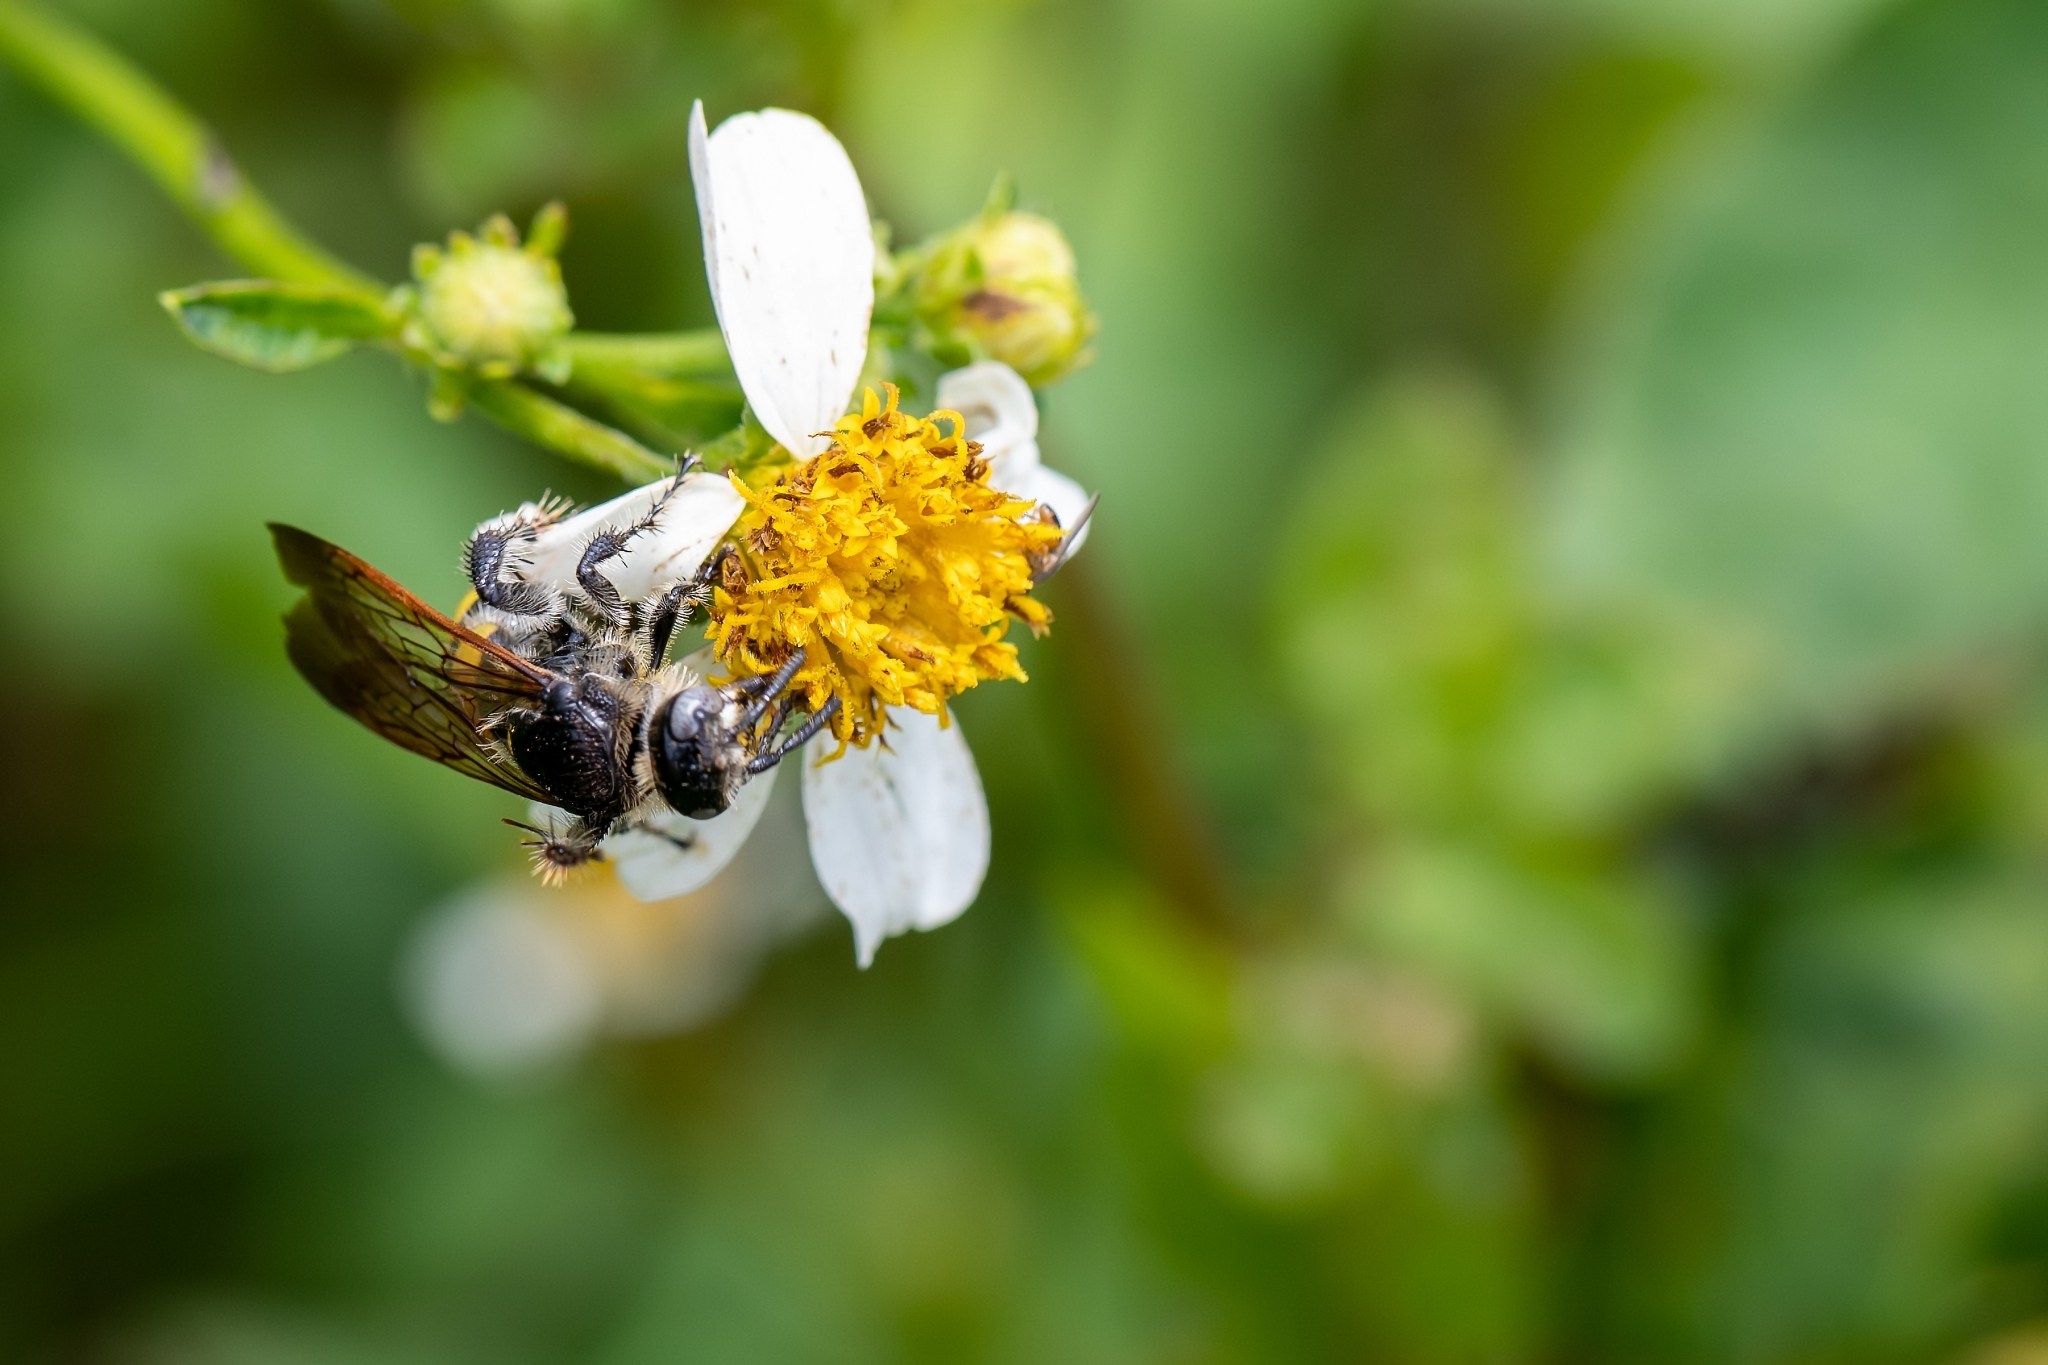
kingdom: Animalia
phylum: Arthropoda
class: Insecta
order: Hymenoptera
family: Scoliidae
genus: Dielis
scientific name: Dielis
